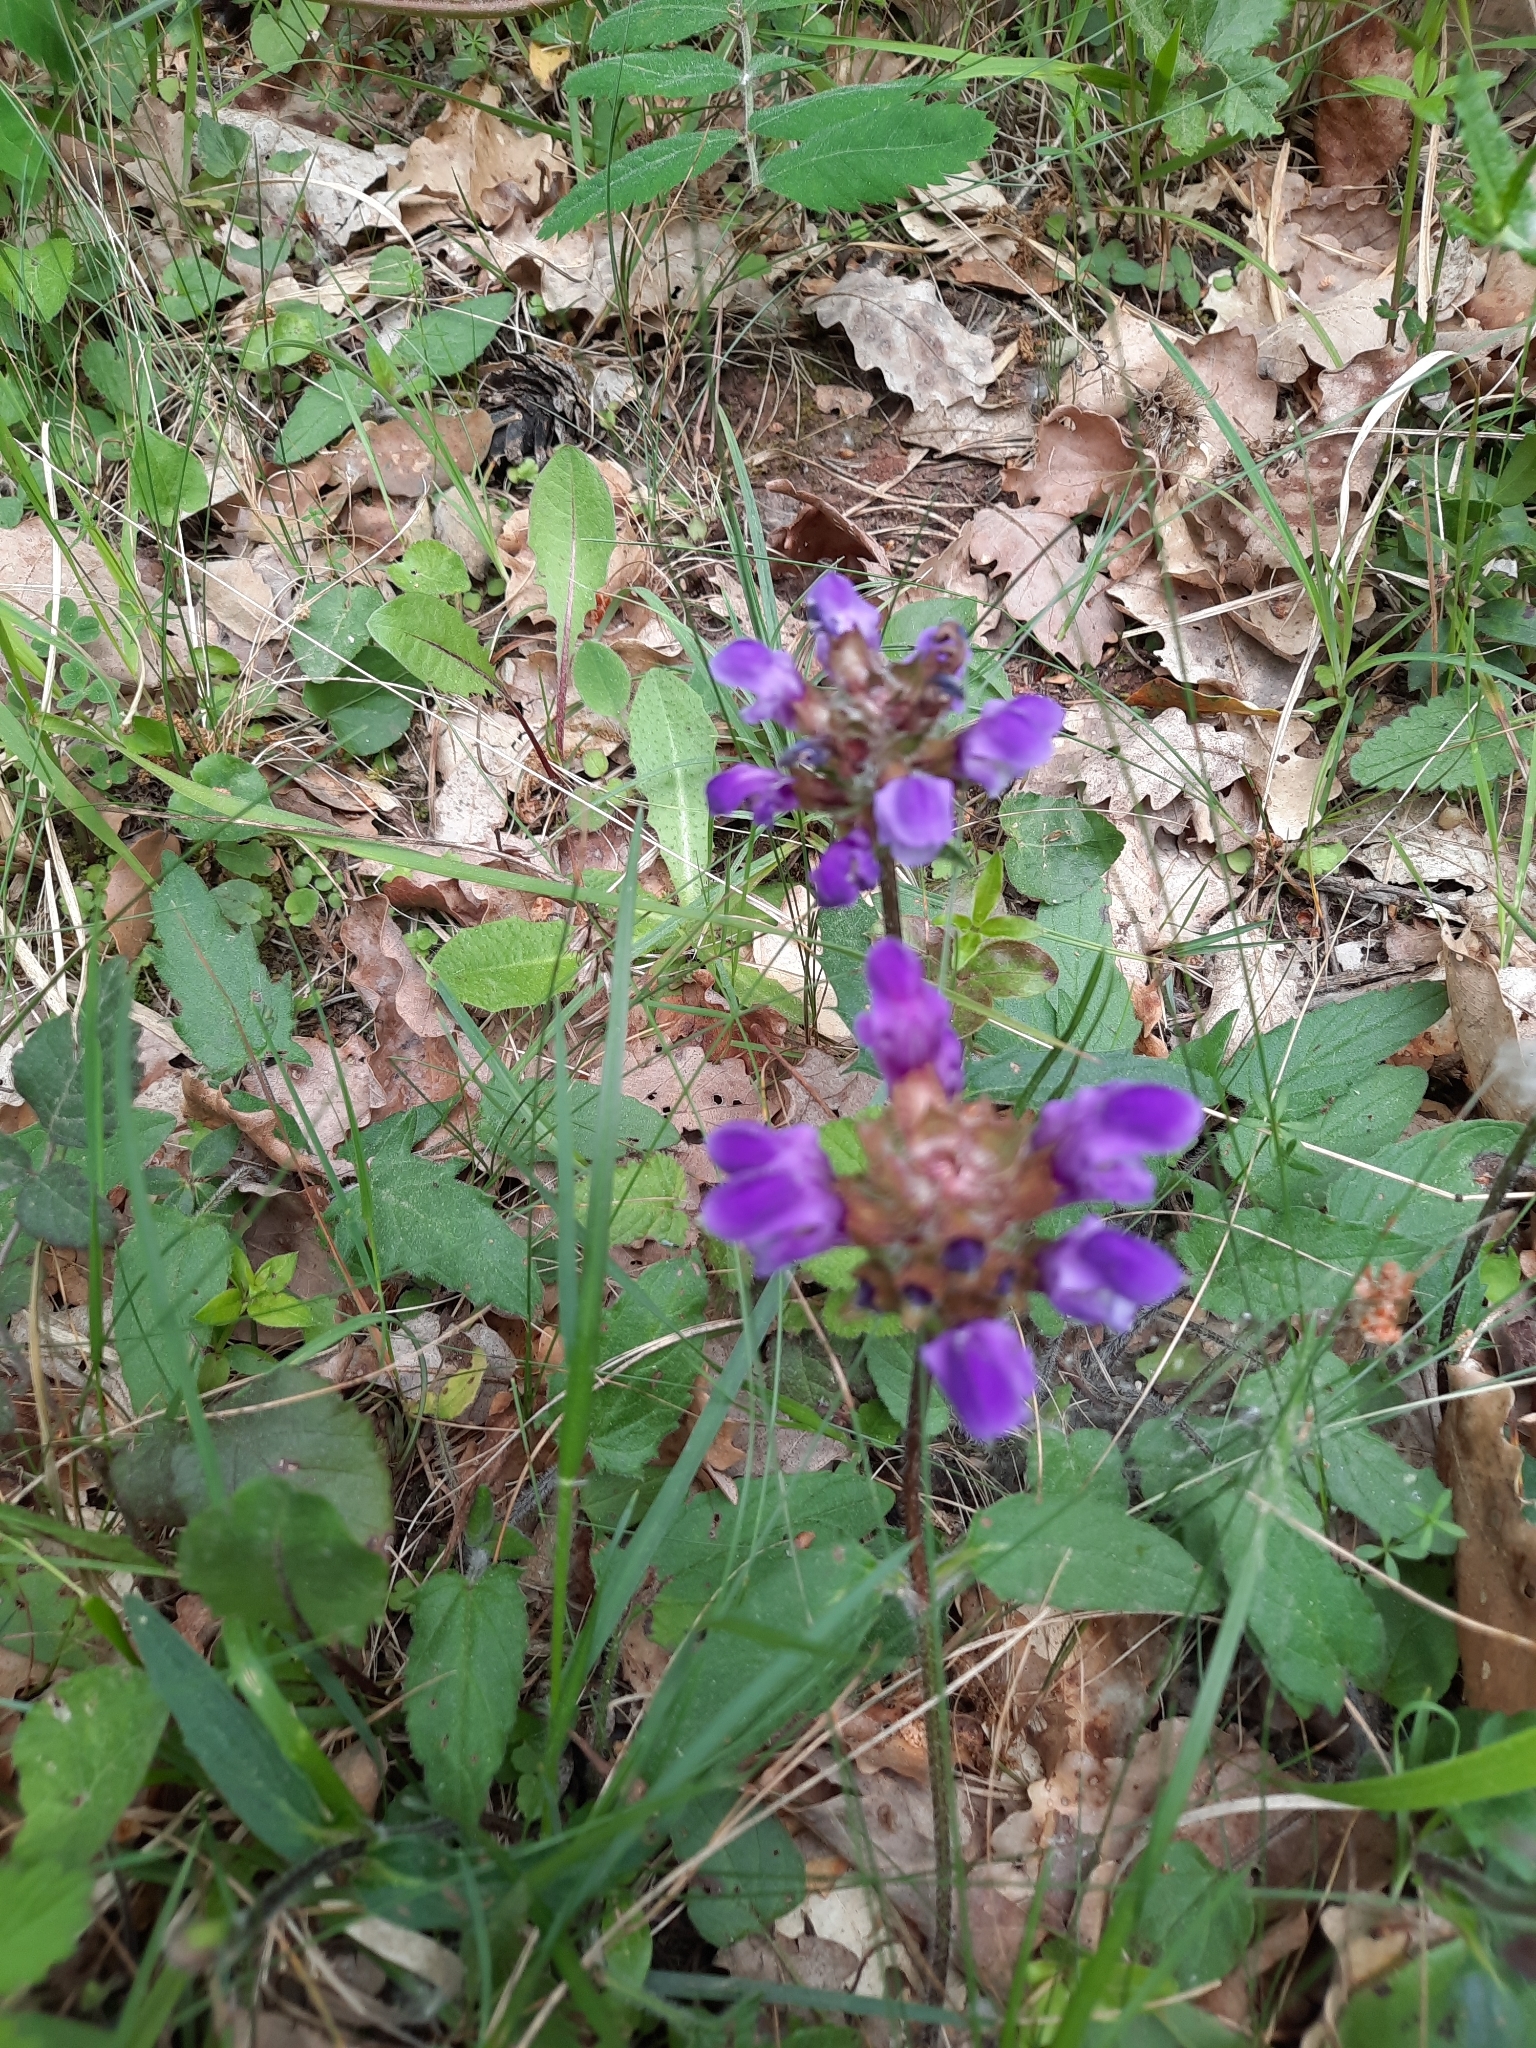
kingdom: Plantae
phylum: Tracheophyta
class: Magnoliopsida
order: Lamiales
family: Lamiaceae
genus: Prunella
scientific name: Prunella grandiflora
